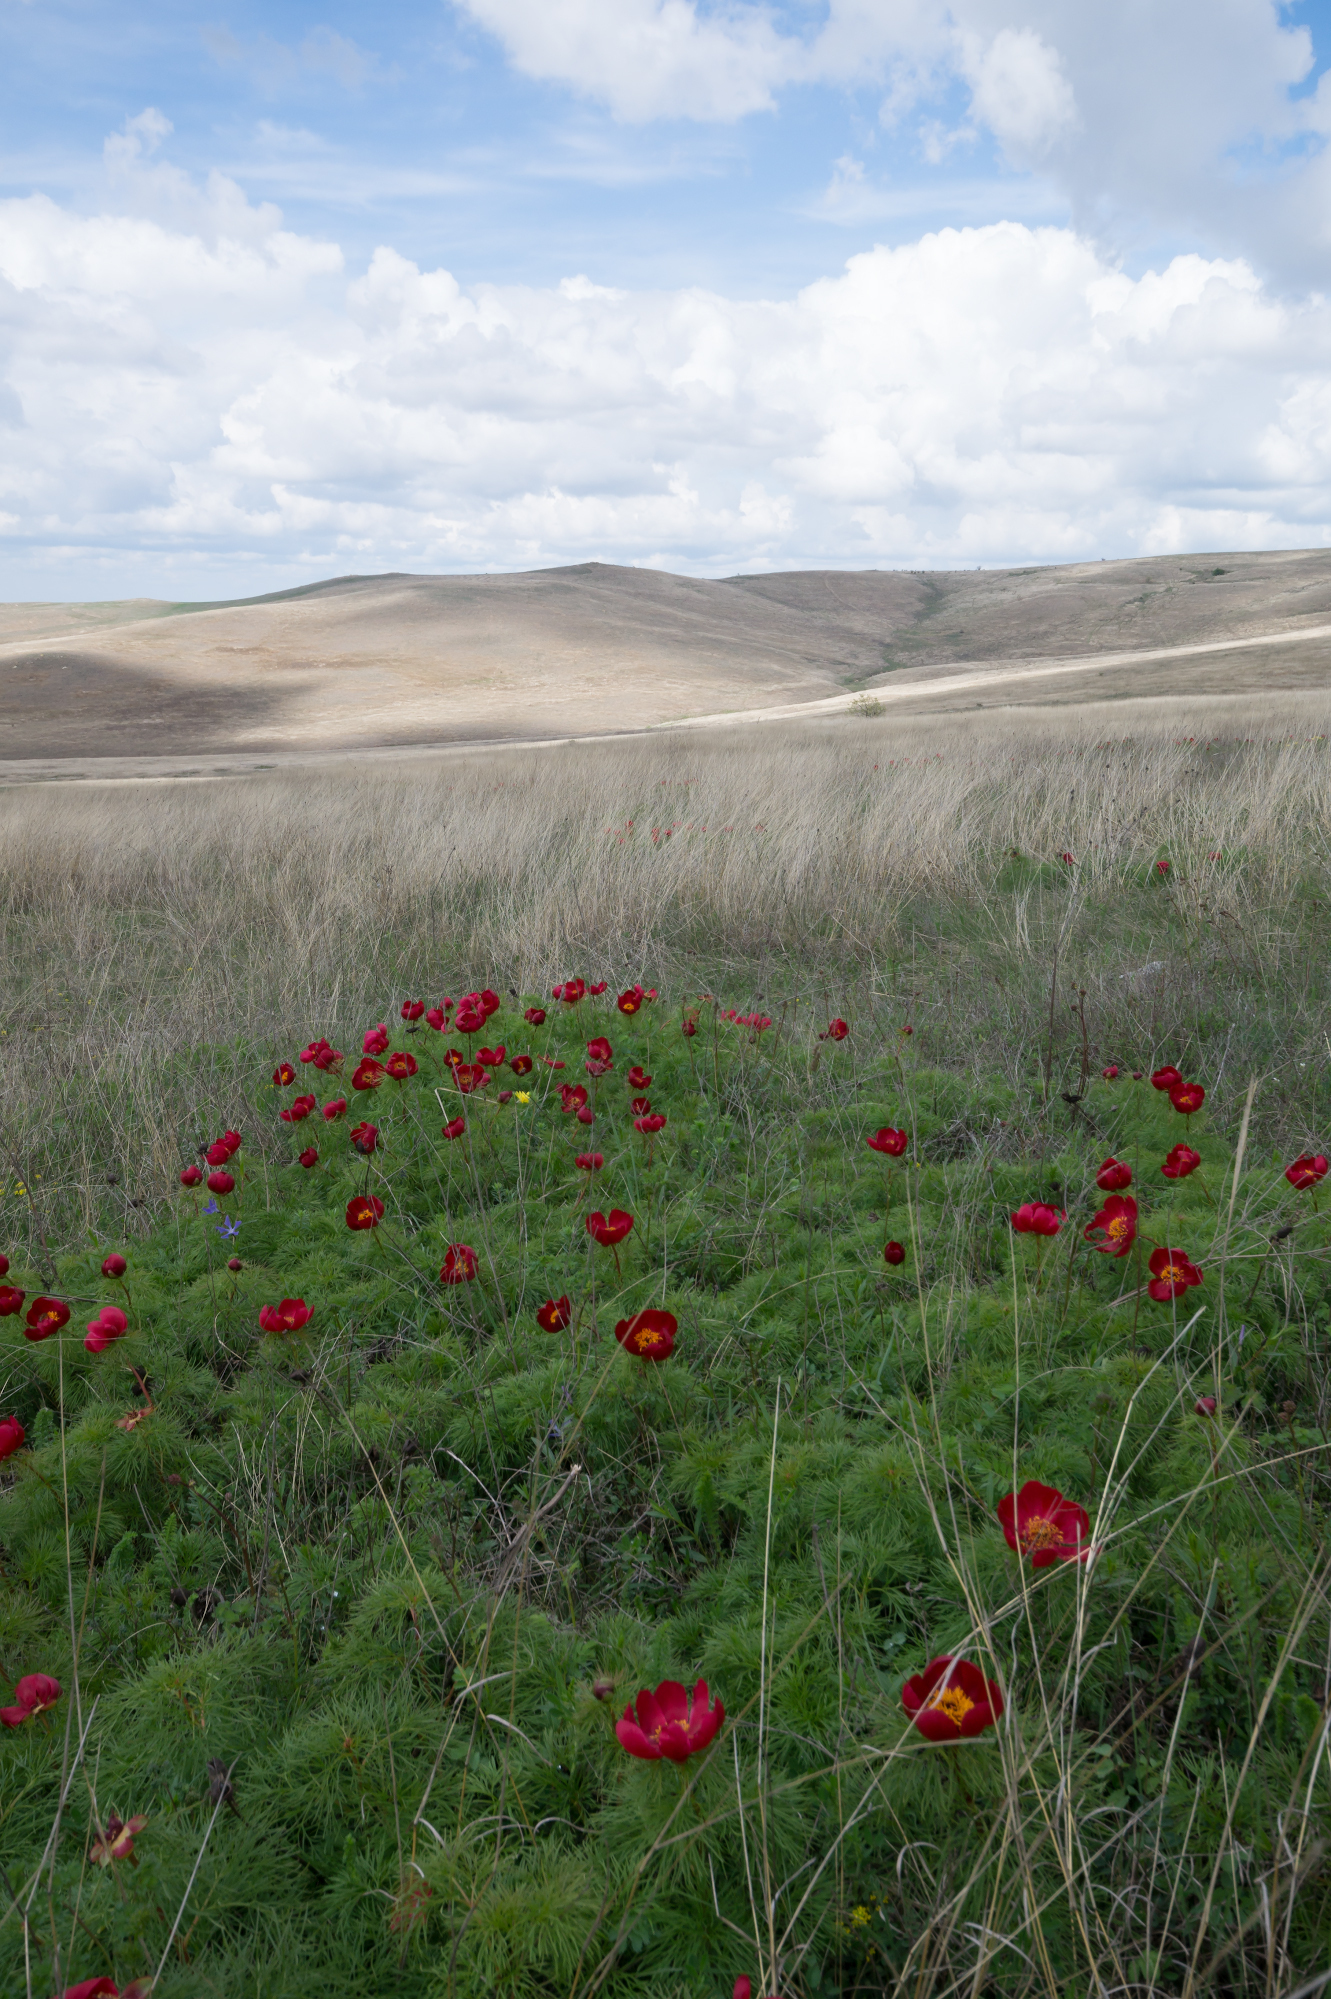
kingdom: Plantae
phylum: Tracheophyta
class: Magnoliopsida
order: Saxifragales
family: Paeoniaceae
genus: Paeonia
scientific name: Paeonia tenuifolia
